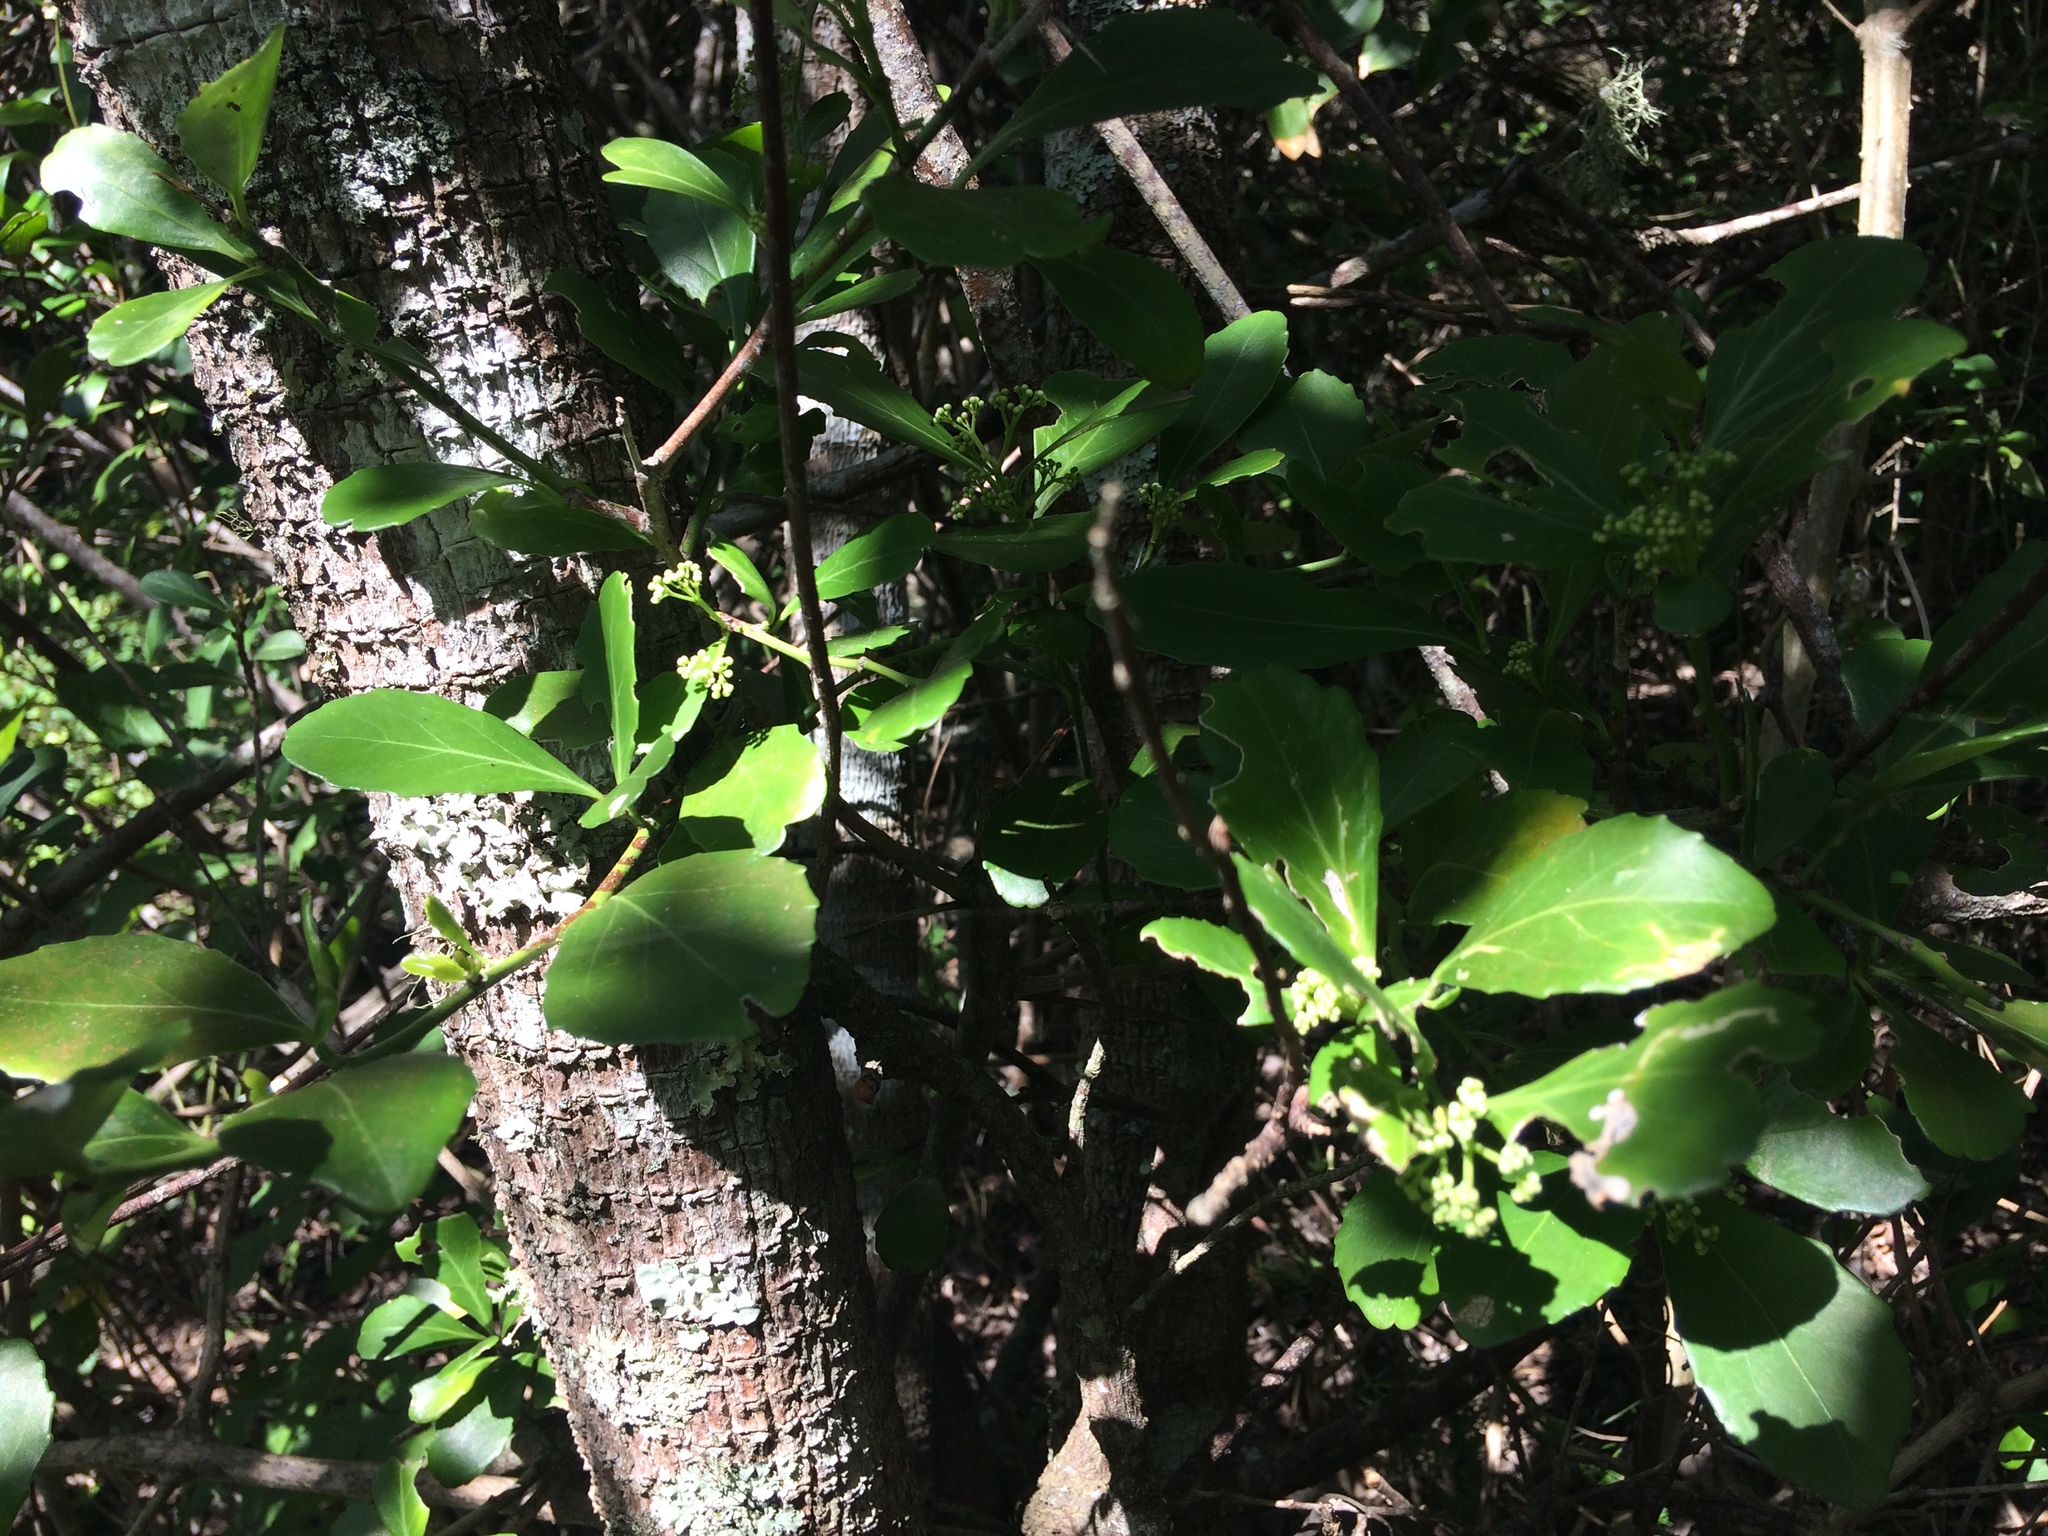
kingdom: Plantae
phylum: Tracheophyta
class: Magnoliopsida
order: Celastrales
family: Celastraceae
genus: Gymnosporia
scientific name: Gymnosporia nemorosa
